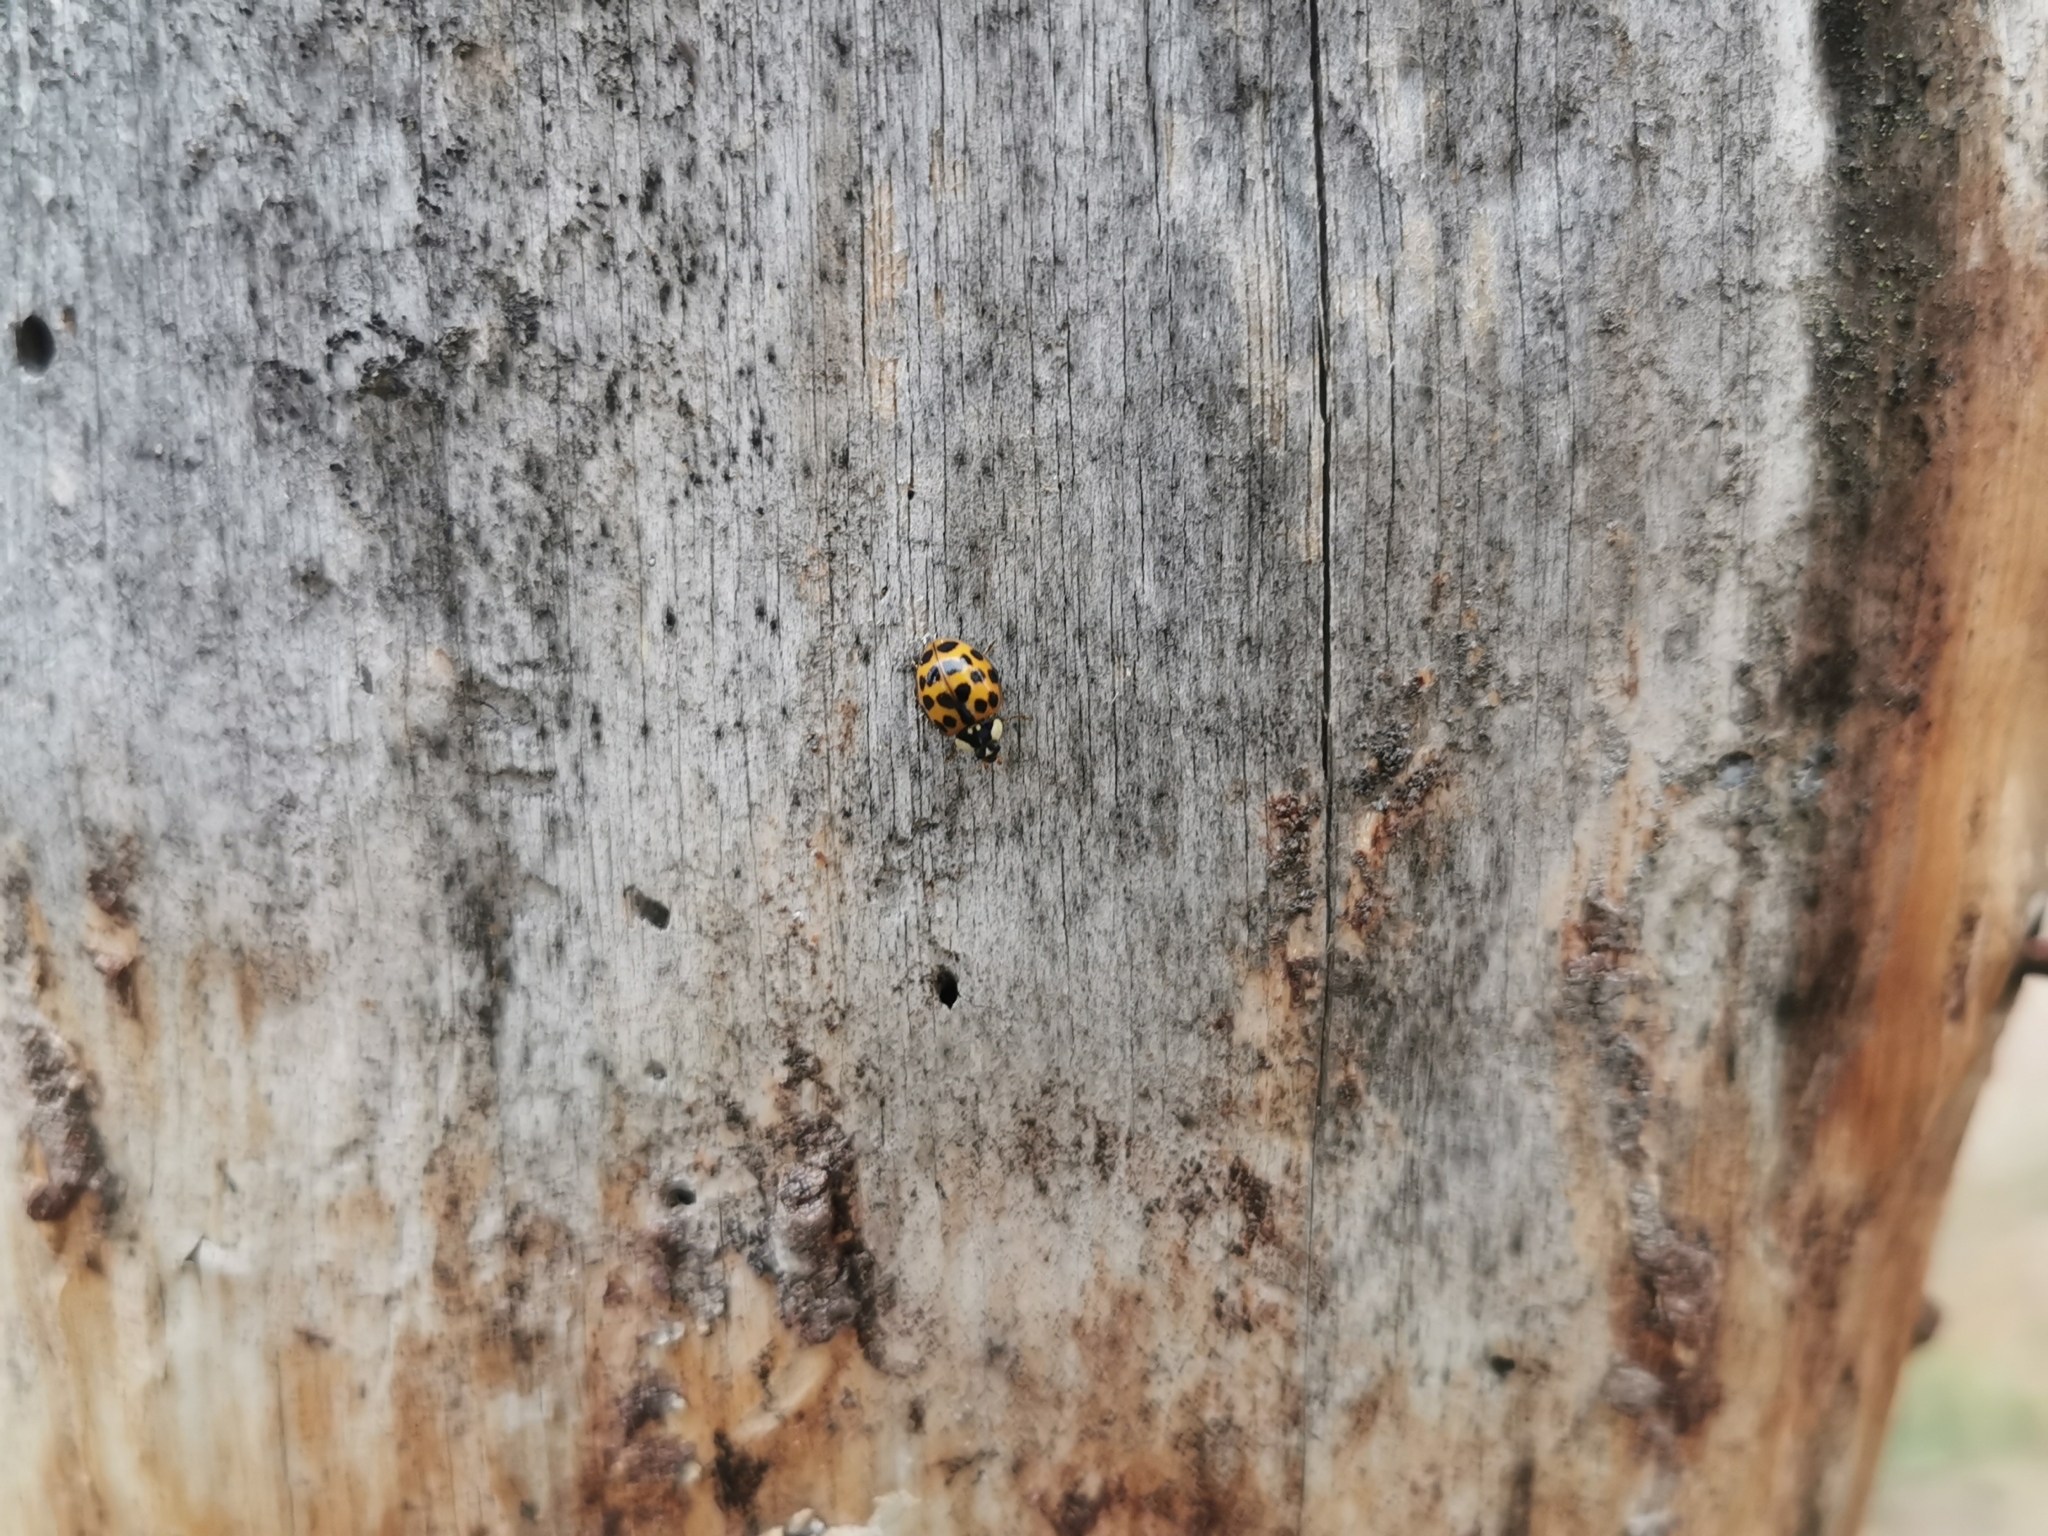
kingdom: Animalia
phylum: Arthropoda
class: Insecta
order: Coleoptera
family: Coccinellidae
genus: Harmonia
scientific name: Harmonia axyridis
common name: Harlequin ladybird
